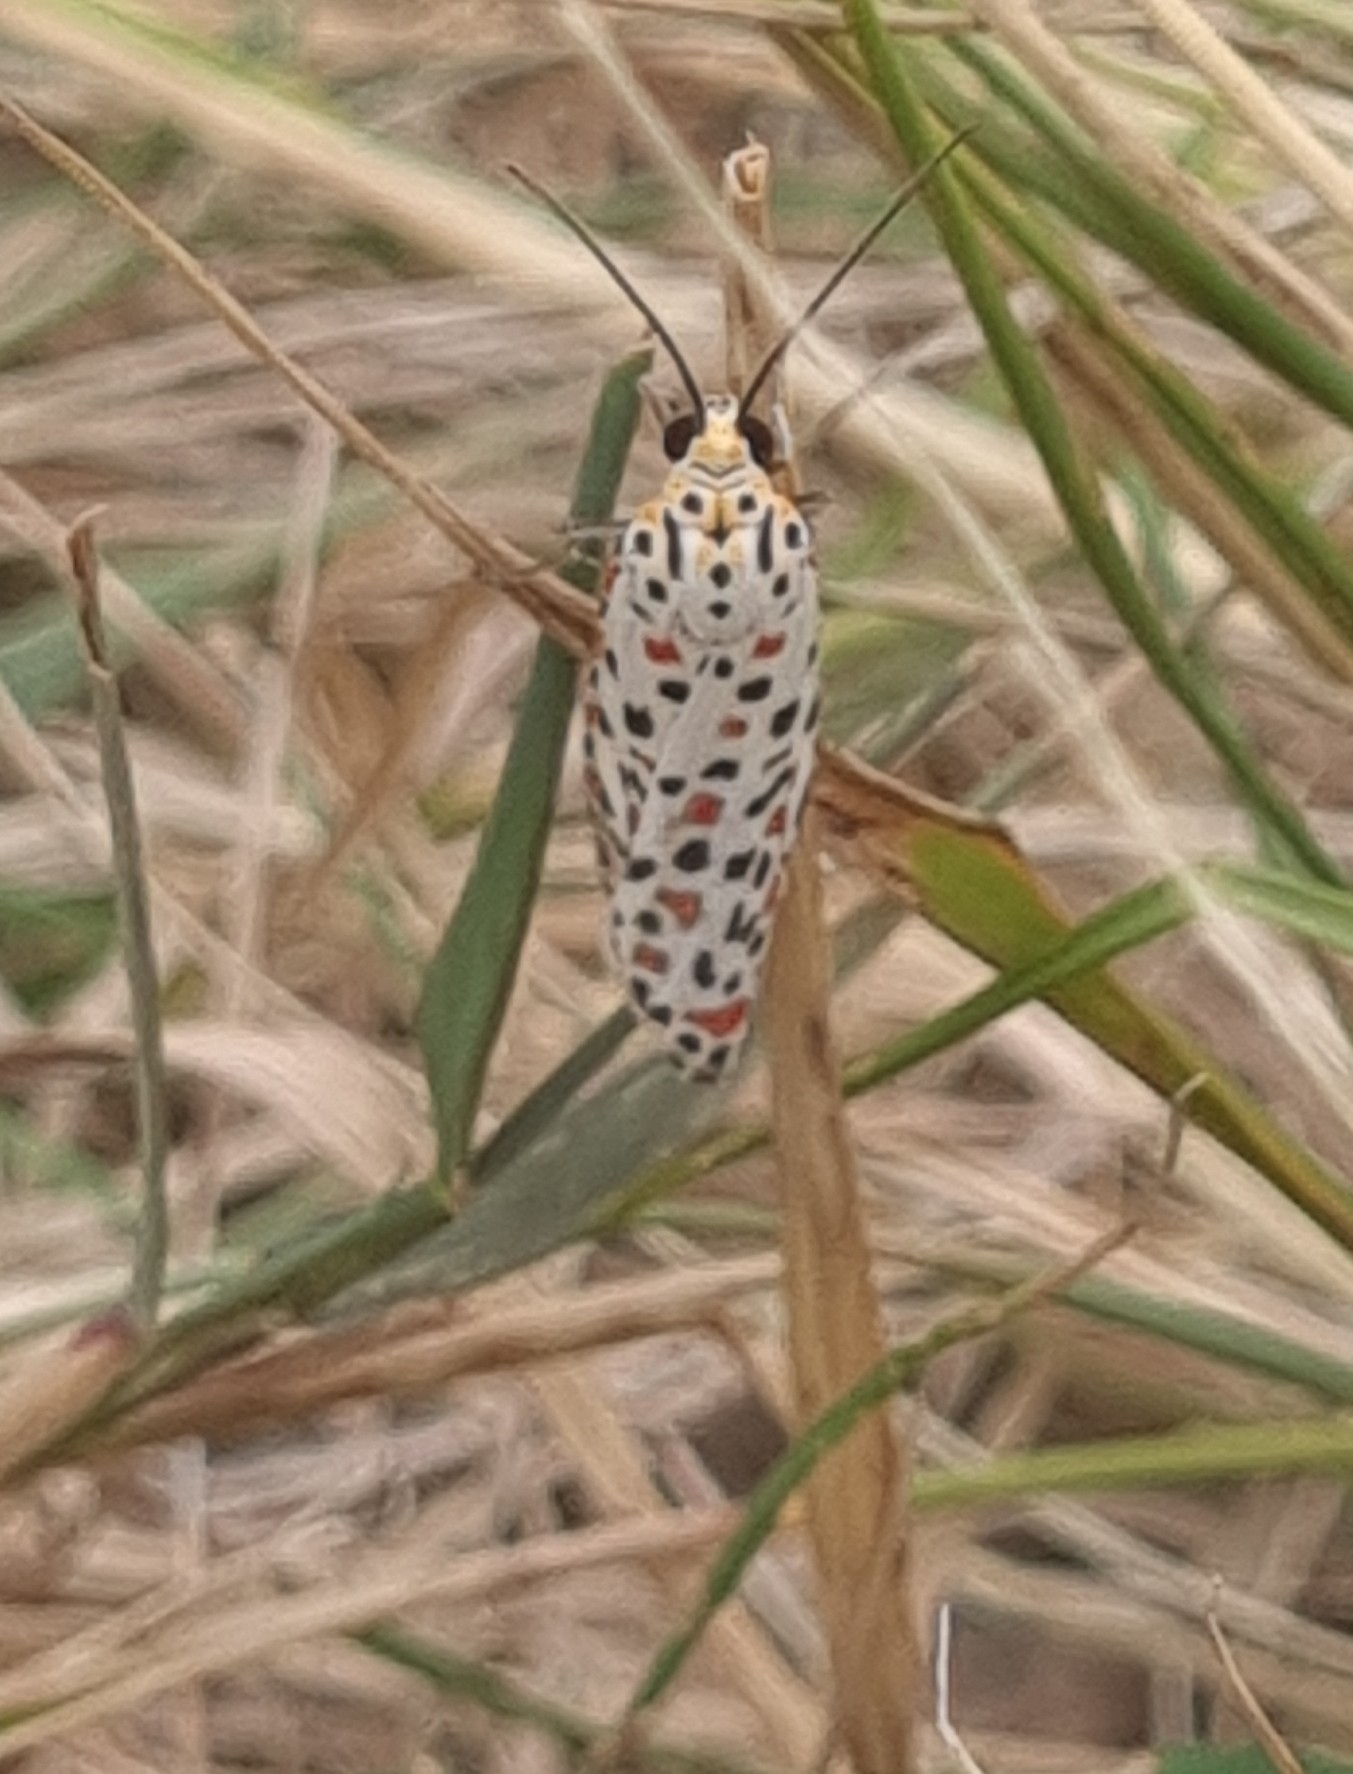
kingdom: Animalia
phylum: Arthropoda
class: Insecta
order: Lepidoptera
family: Erebidae
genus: Utetheisa
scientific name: Utetheisa pulchelloides
